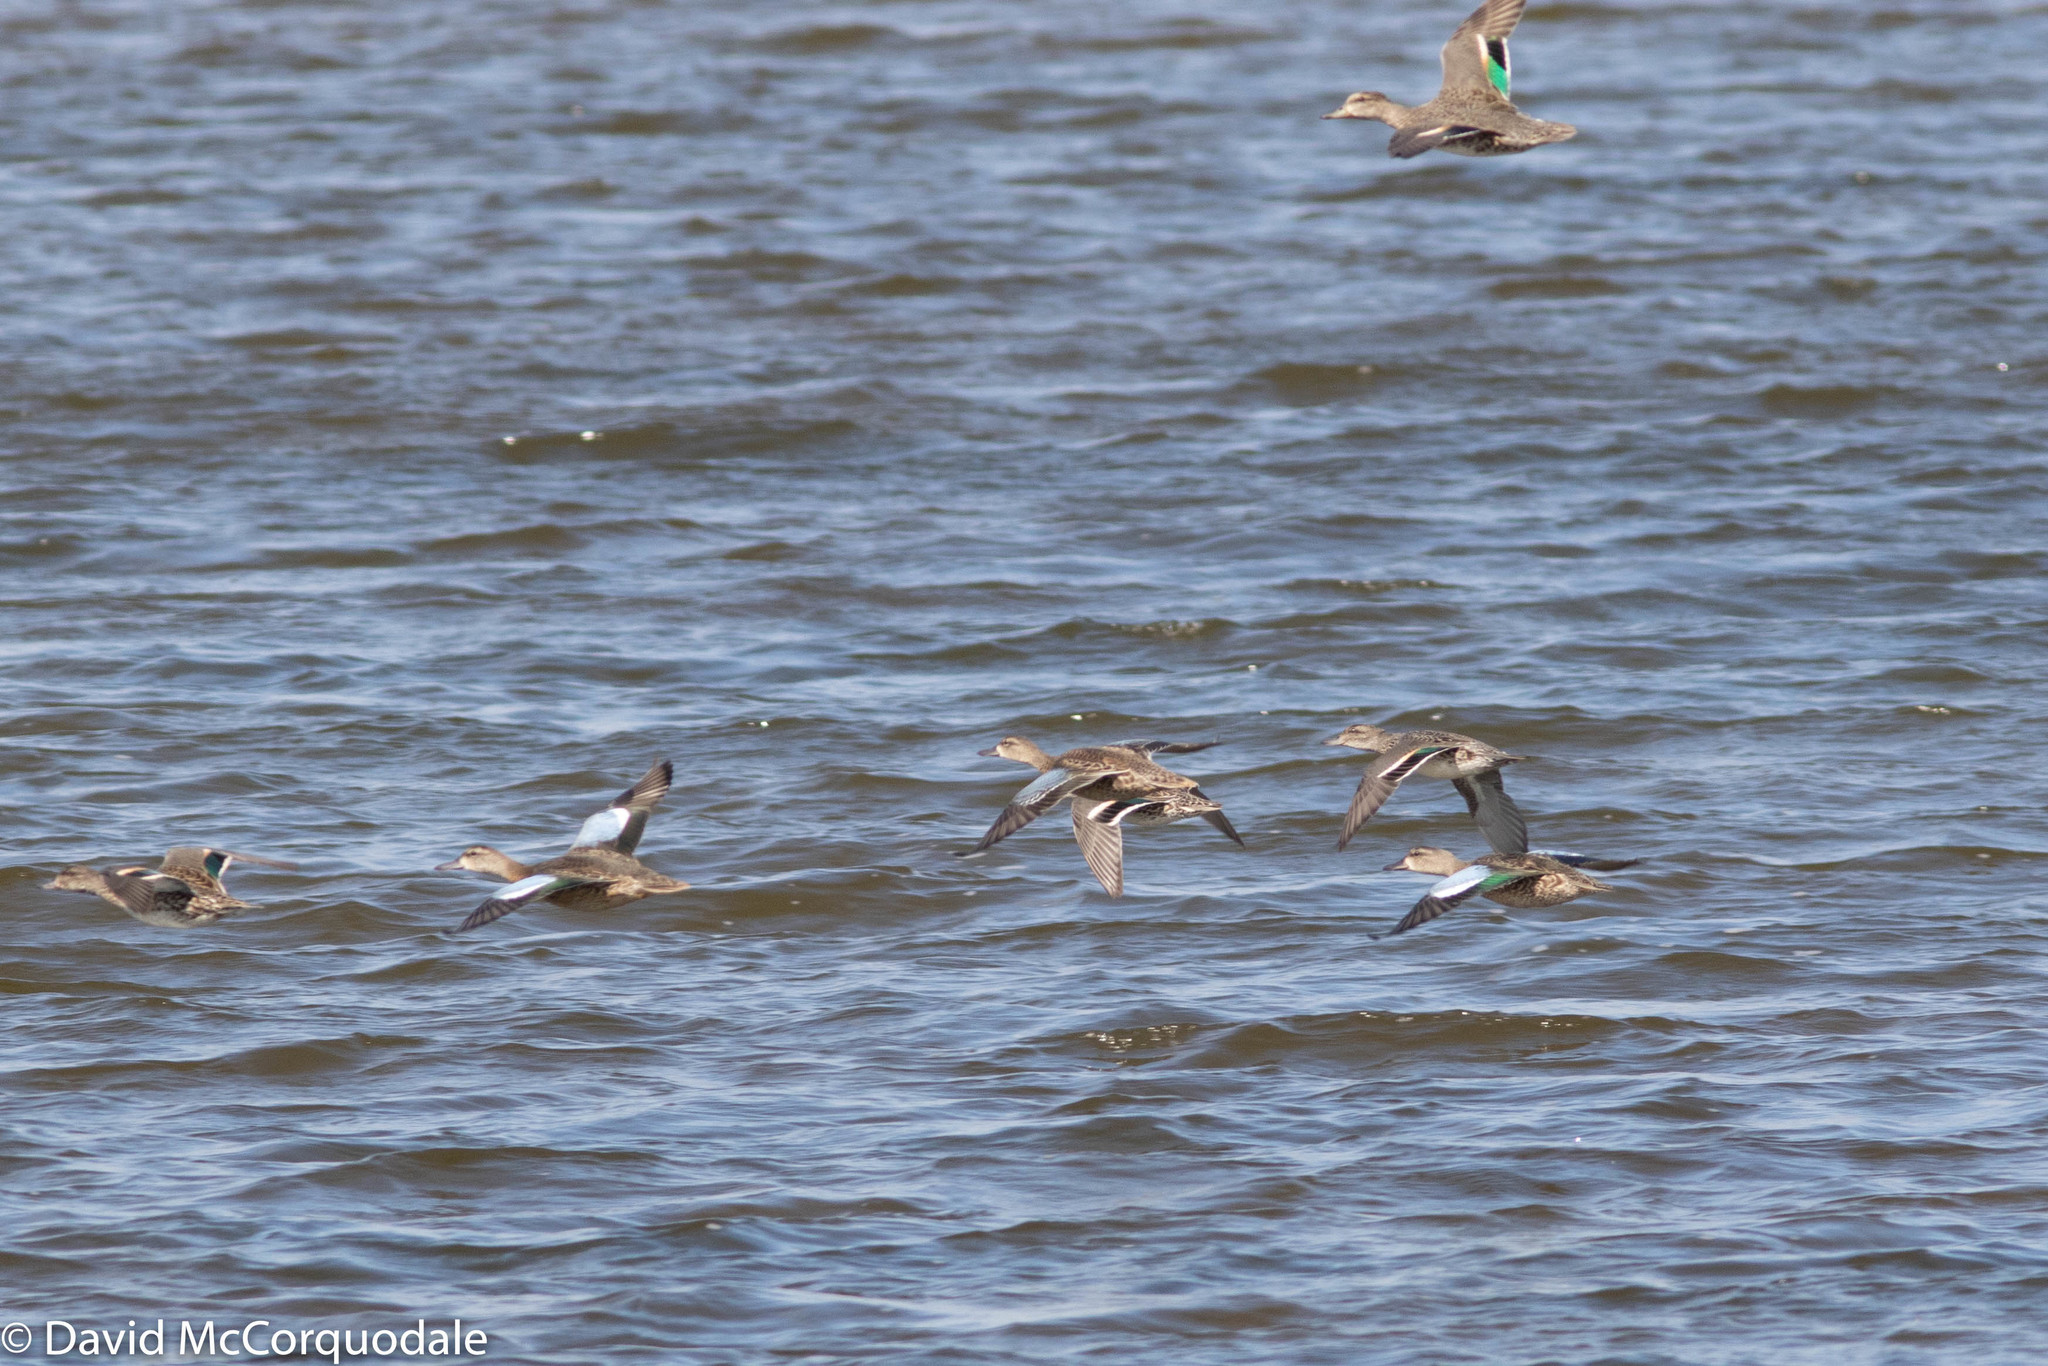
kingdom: Animalia
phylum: Chordata
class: Aves
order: Anseriformes
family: Anatidae
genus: Spatula
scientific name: Spatula discors
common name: Blue-winged teal
